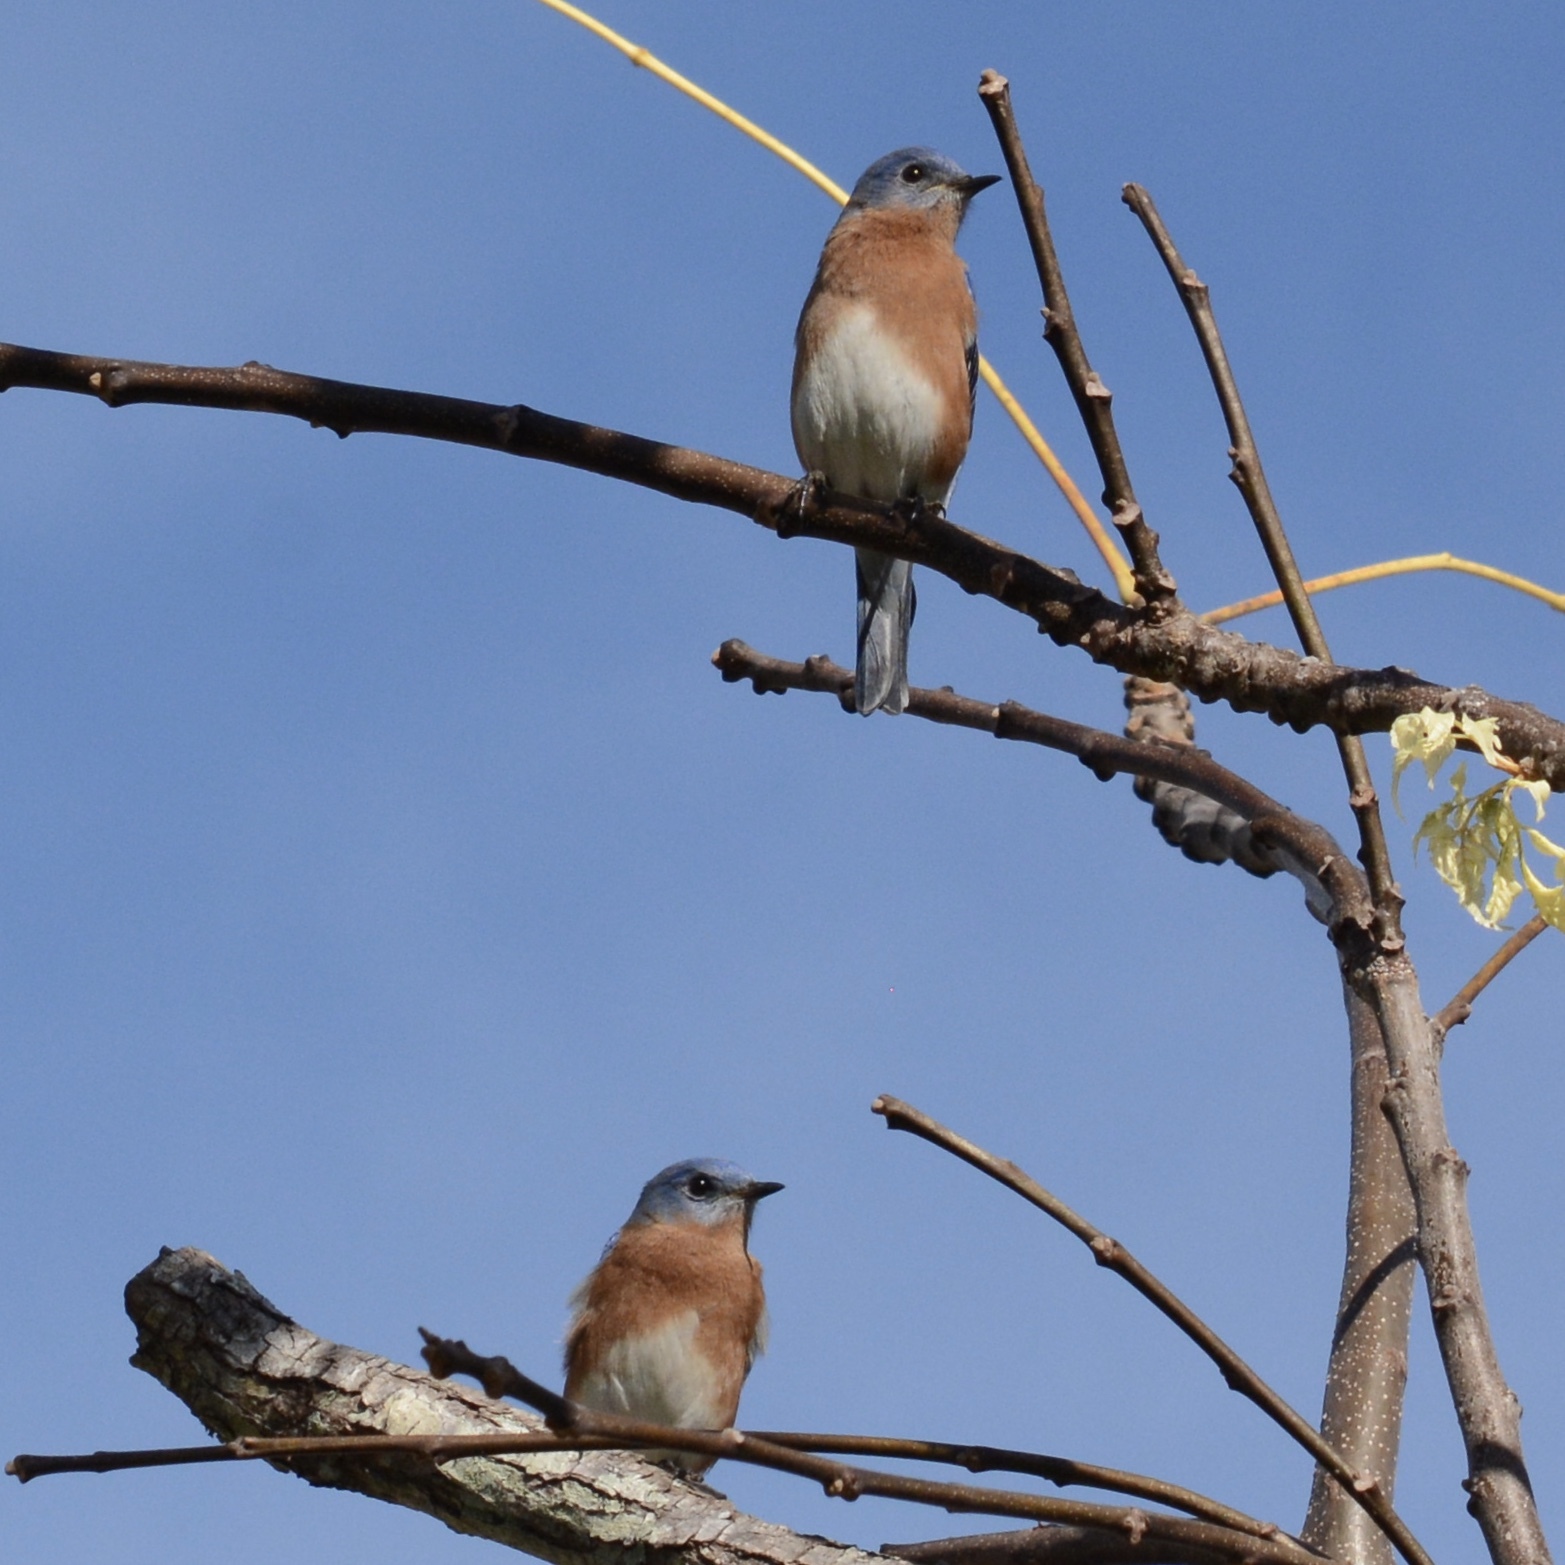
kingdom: Animalia
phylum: Chordata
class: Aves
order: Passeriformes
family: Turdidae
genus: Sialia
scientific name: Sialia sialis
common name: Eastern bluebird
